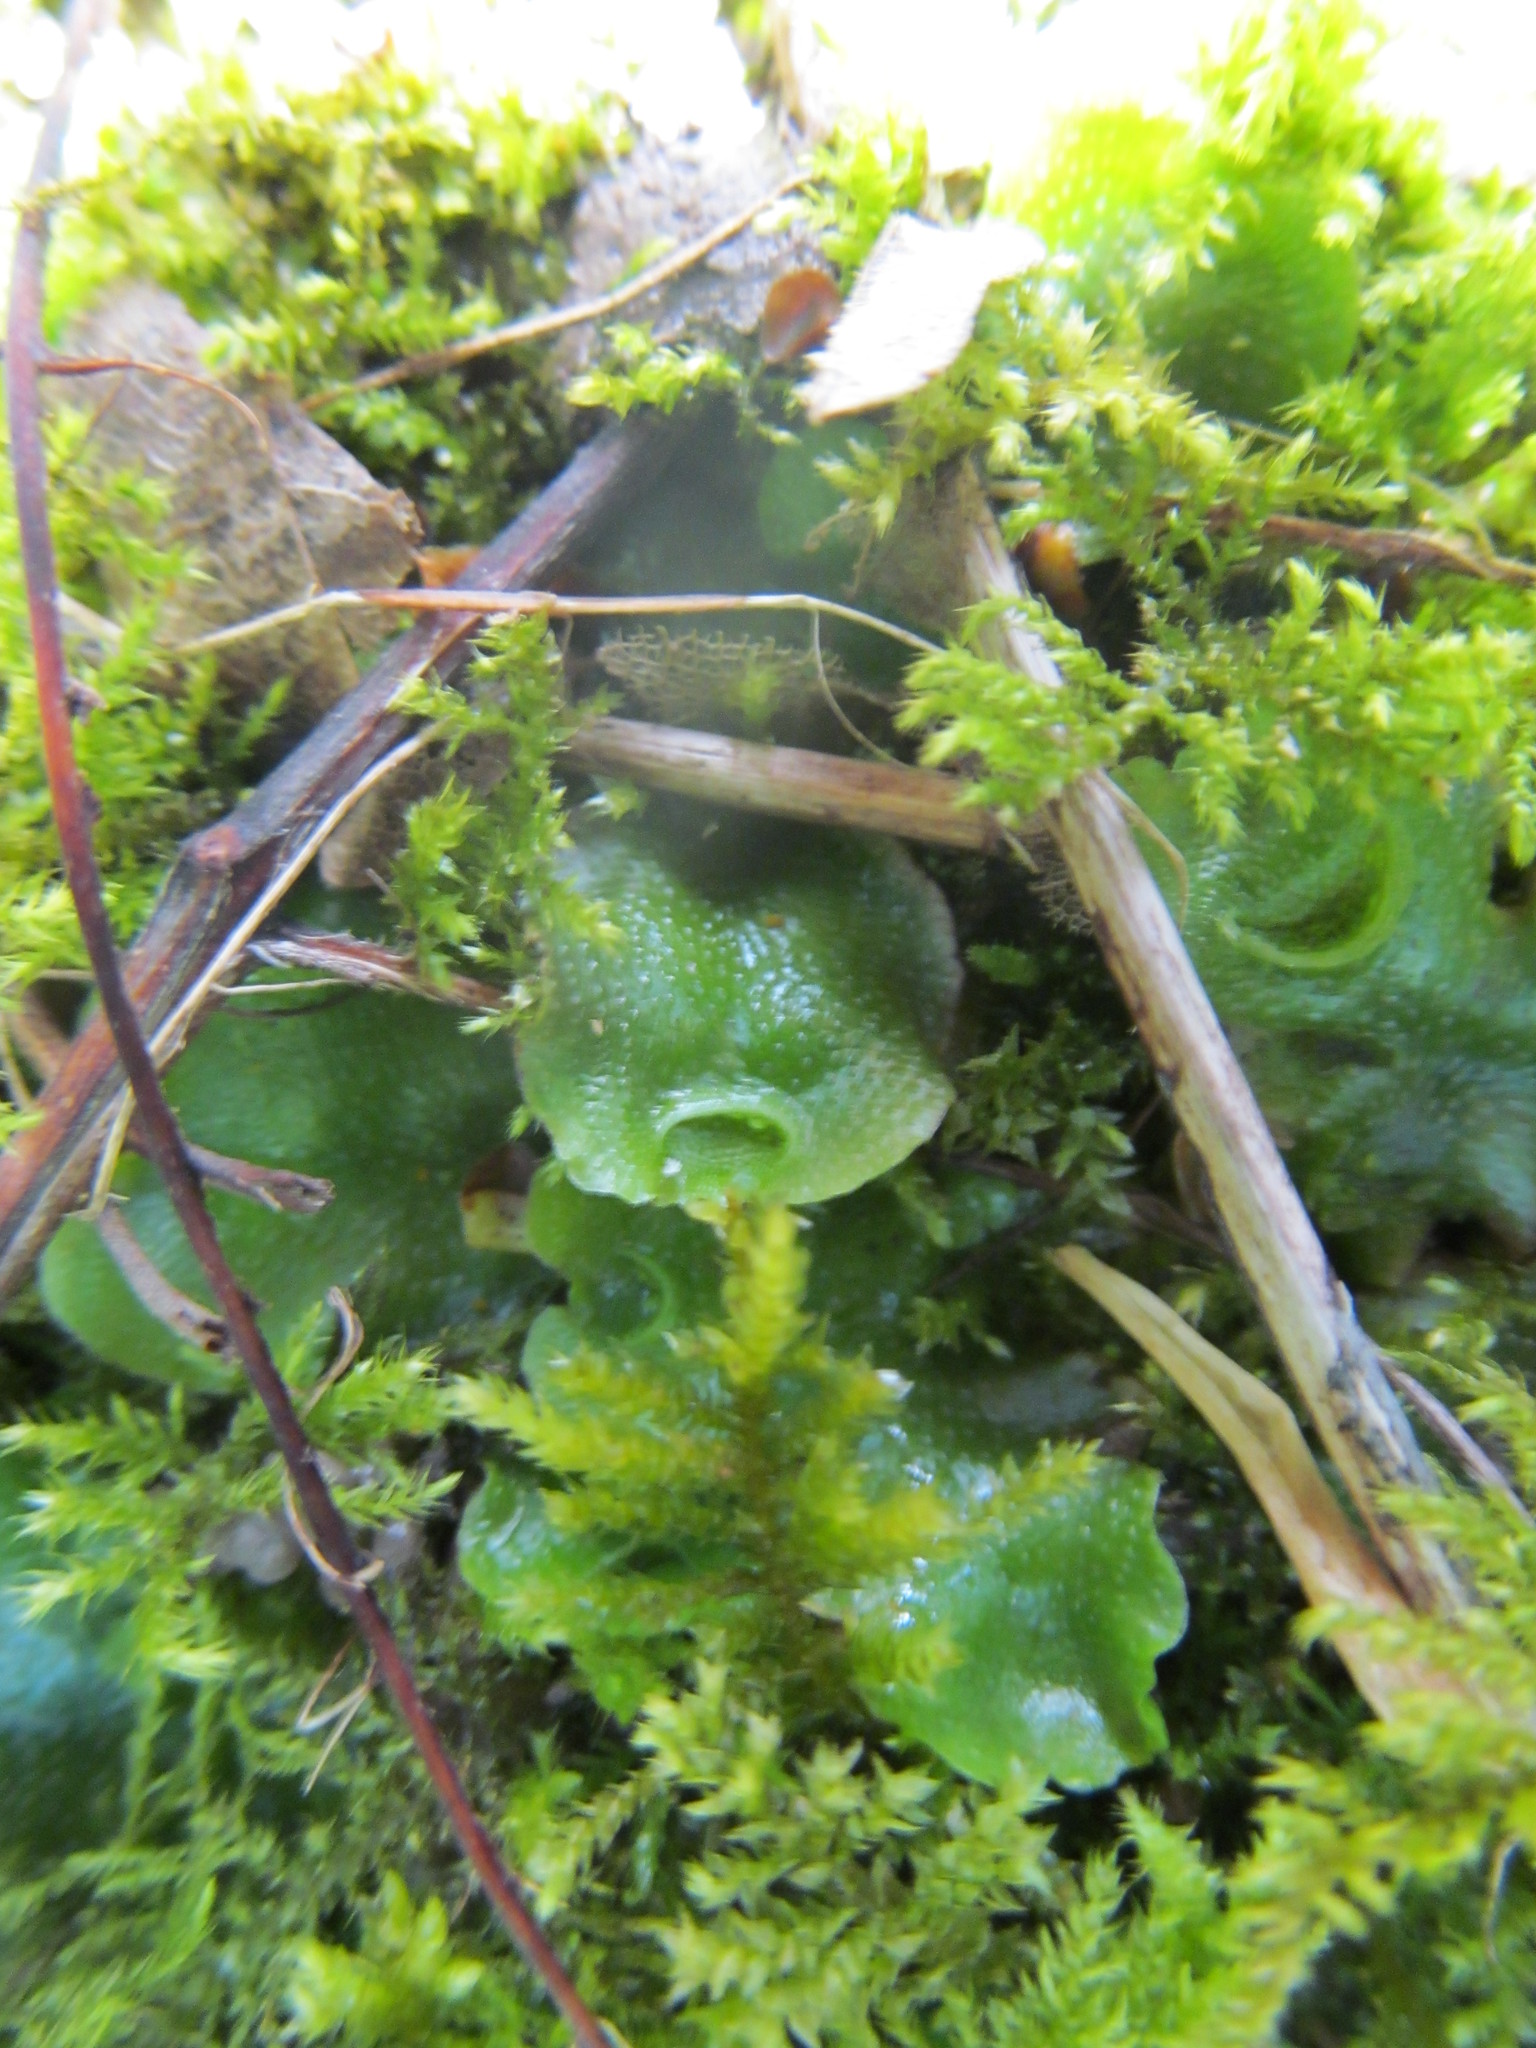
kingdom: Plantae
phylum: Marchantiophyta
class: Marchantiopsida
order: Lunulariales
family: Lunulariaceae
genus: Lunularia
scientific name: Lunularia cruciata
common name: Crescent-cup liverwort
